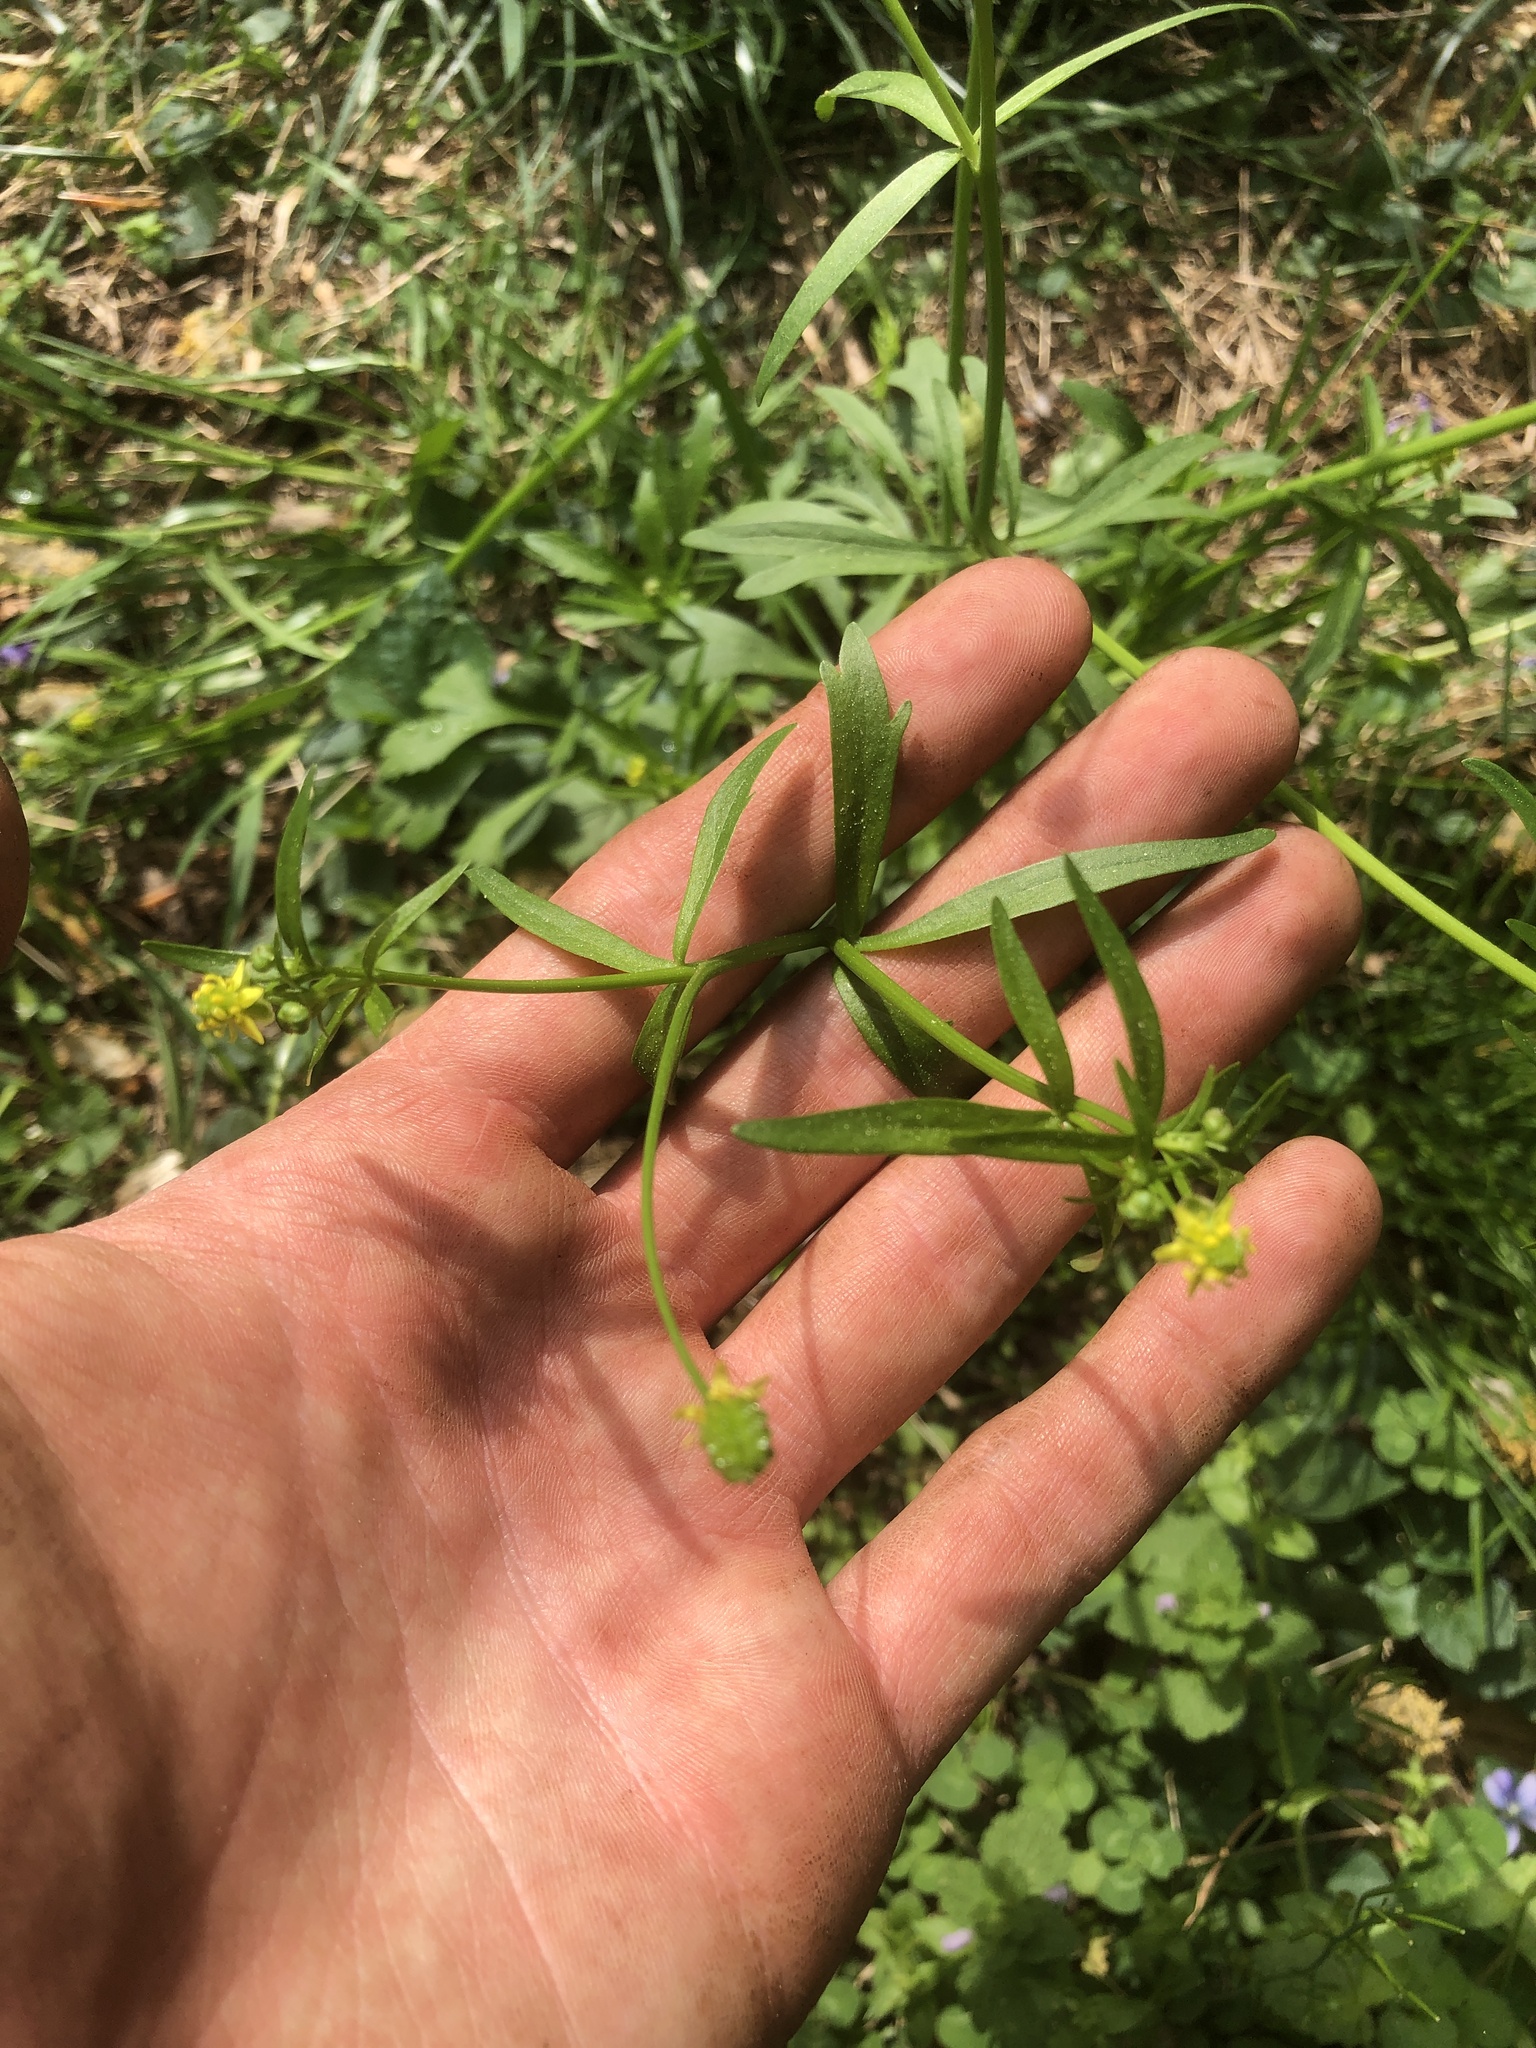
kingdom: Plantae
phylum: Tracheophyta
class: Magnoliopsida
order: Ranunculales
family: Ranunculaceae
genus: Ranunculus
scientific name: Ranunculus abortivus
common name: Early wood buttercup
